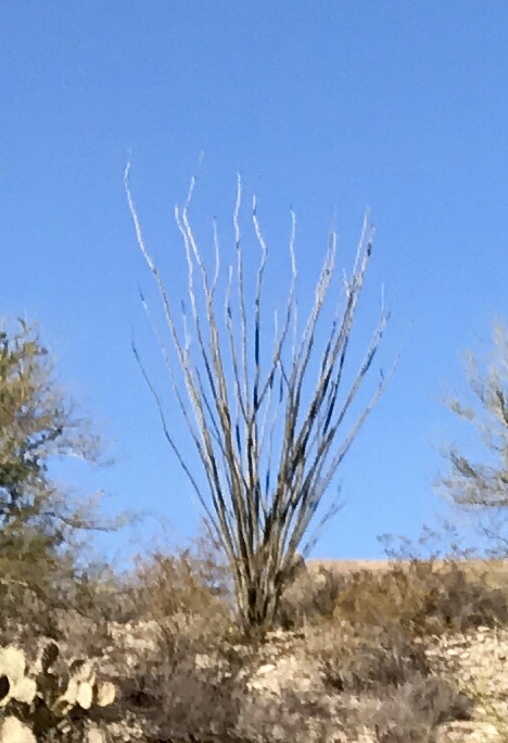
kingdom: Plantae
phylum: Tracheophyta
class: Magnoliopsida
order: Ericales
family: Fouquieriaceae
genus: Fouquieria
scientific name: Fouquieria splendens
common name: Vine-cactus
